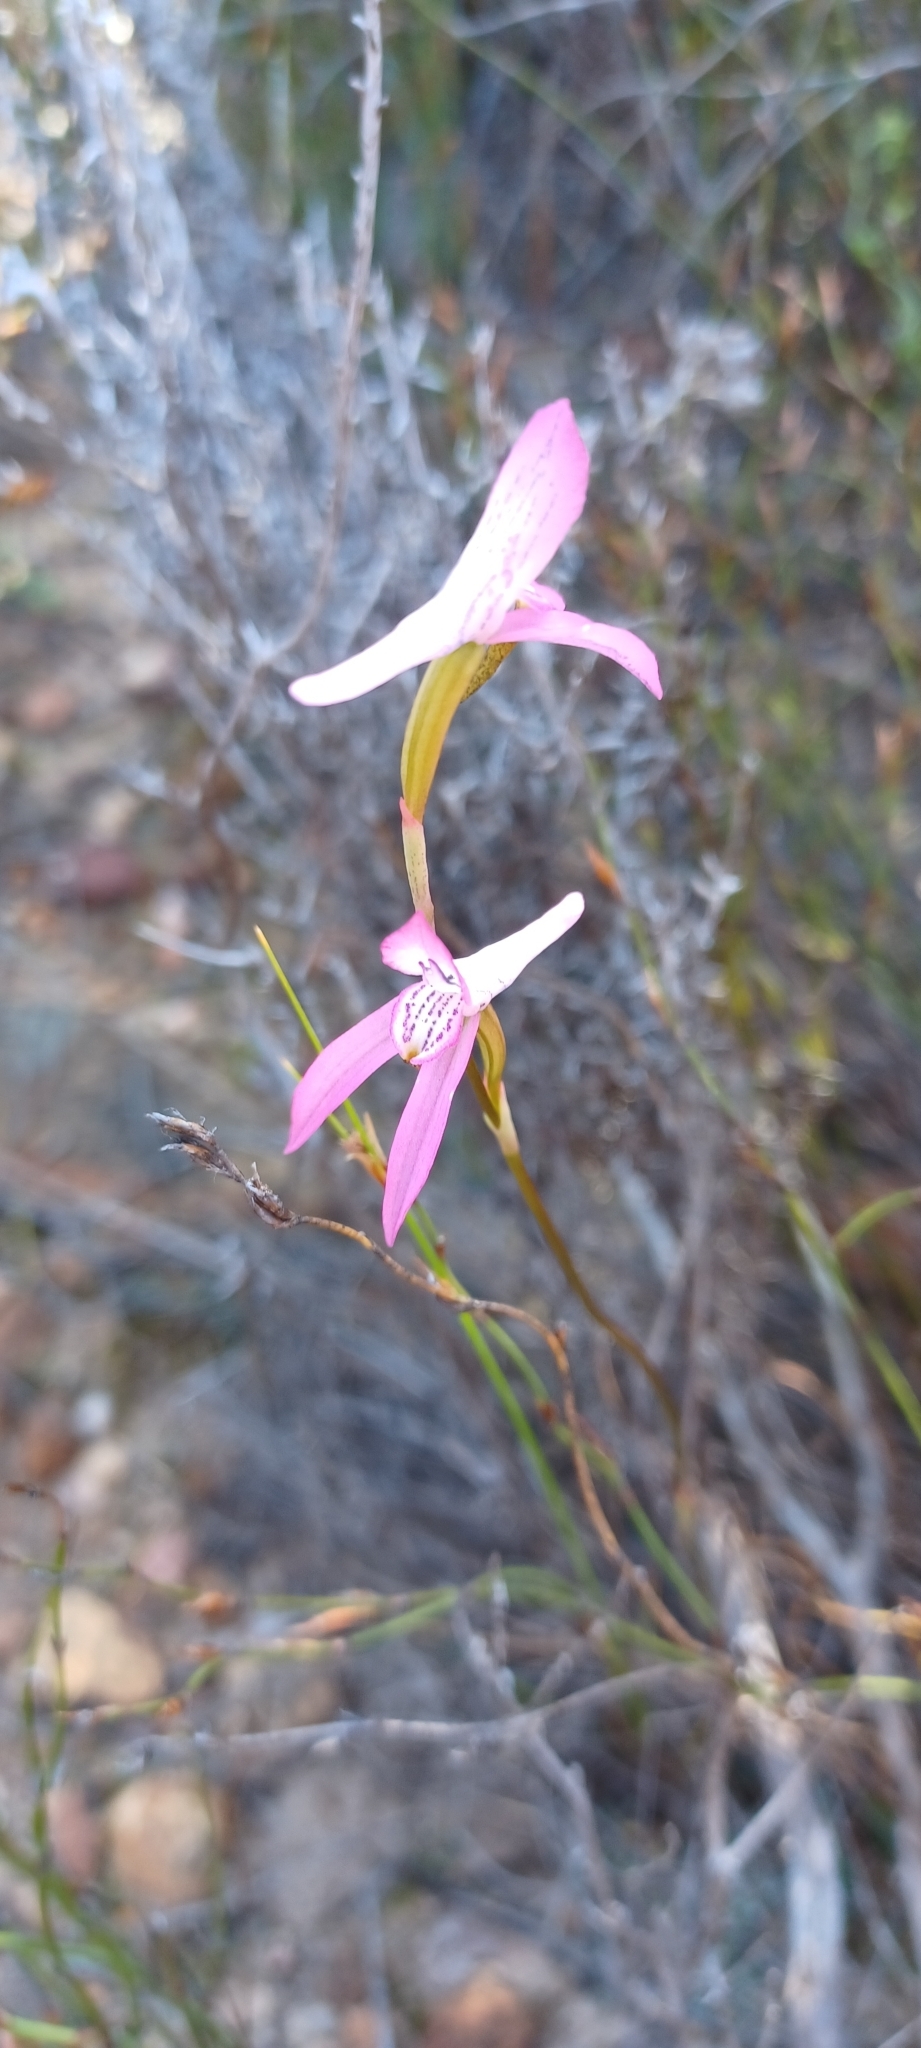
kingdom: Plantae
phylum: Tracheophyta
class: Liliopsida
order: Asparagales
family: Orchidaceae
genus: Disa
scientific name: Disa bifida
